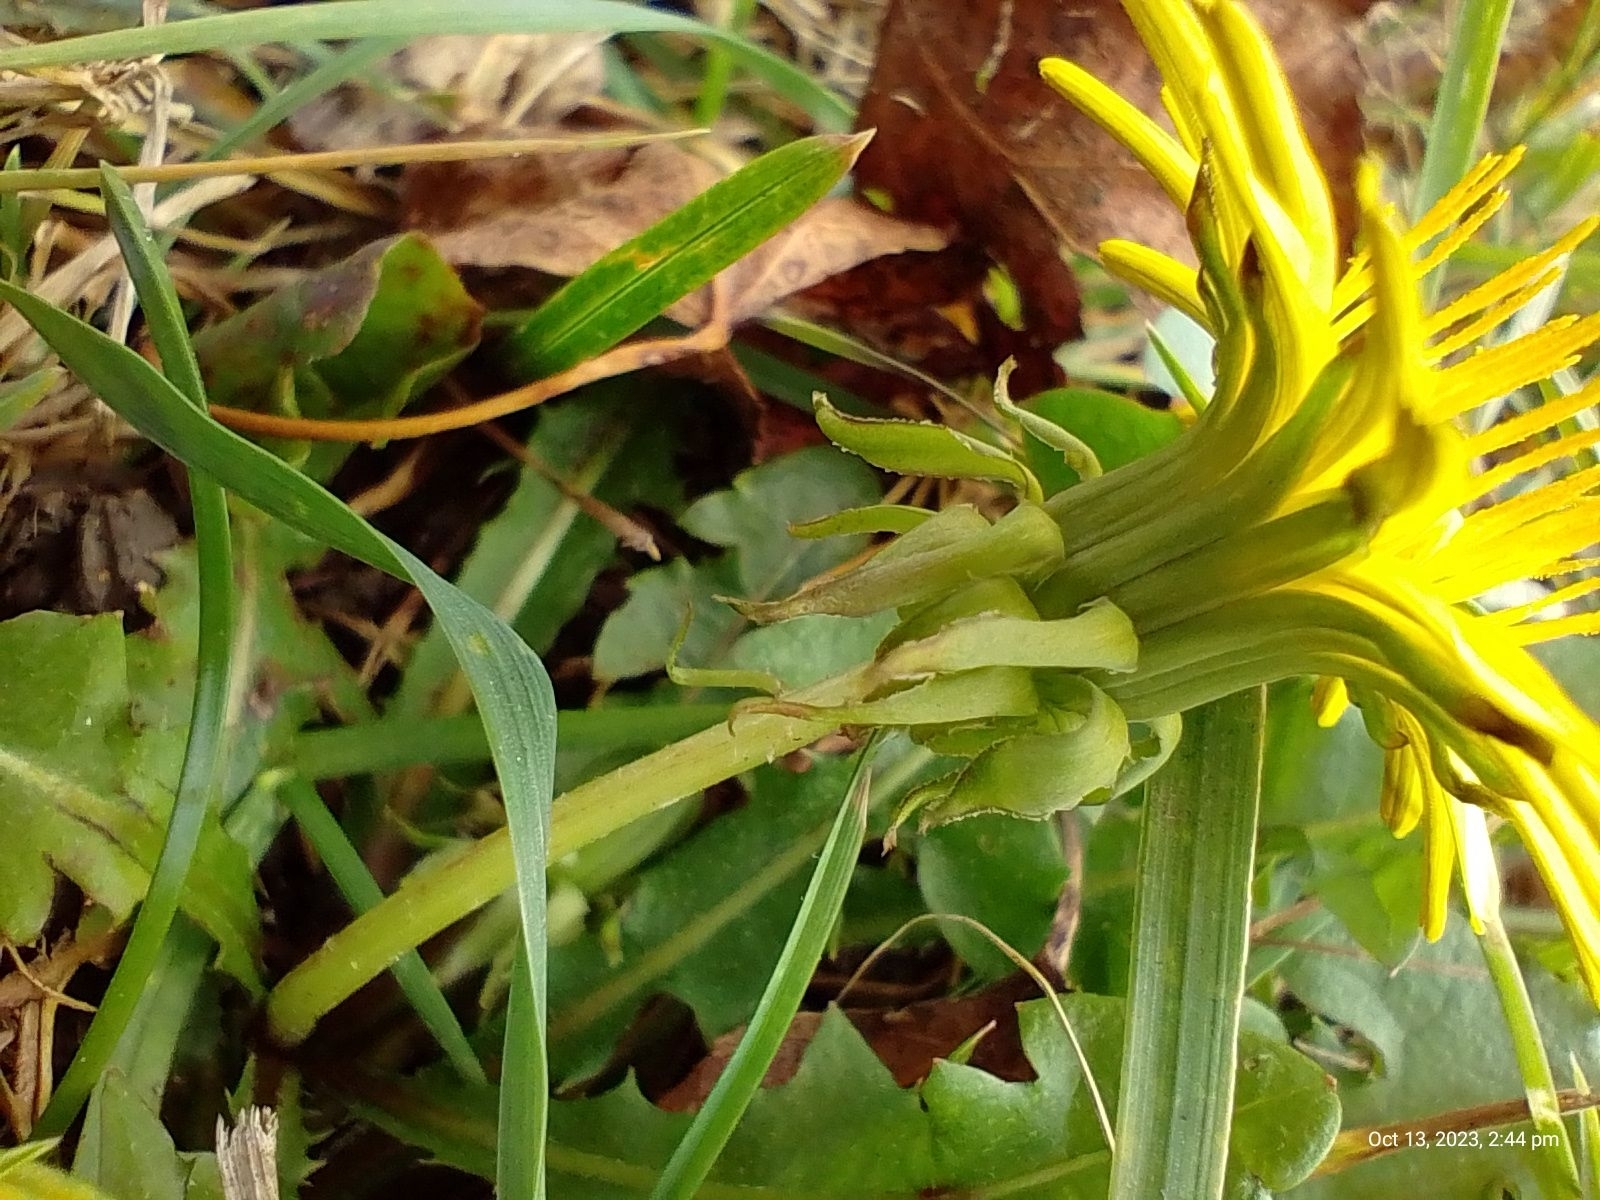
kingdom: Plantae
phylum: Tracheophyta
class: Magnoliopsida
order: Asterales
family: Asteraceae
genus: Taraxacum
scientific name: Taraxacum officinale
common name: Common dandelion
